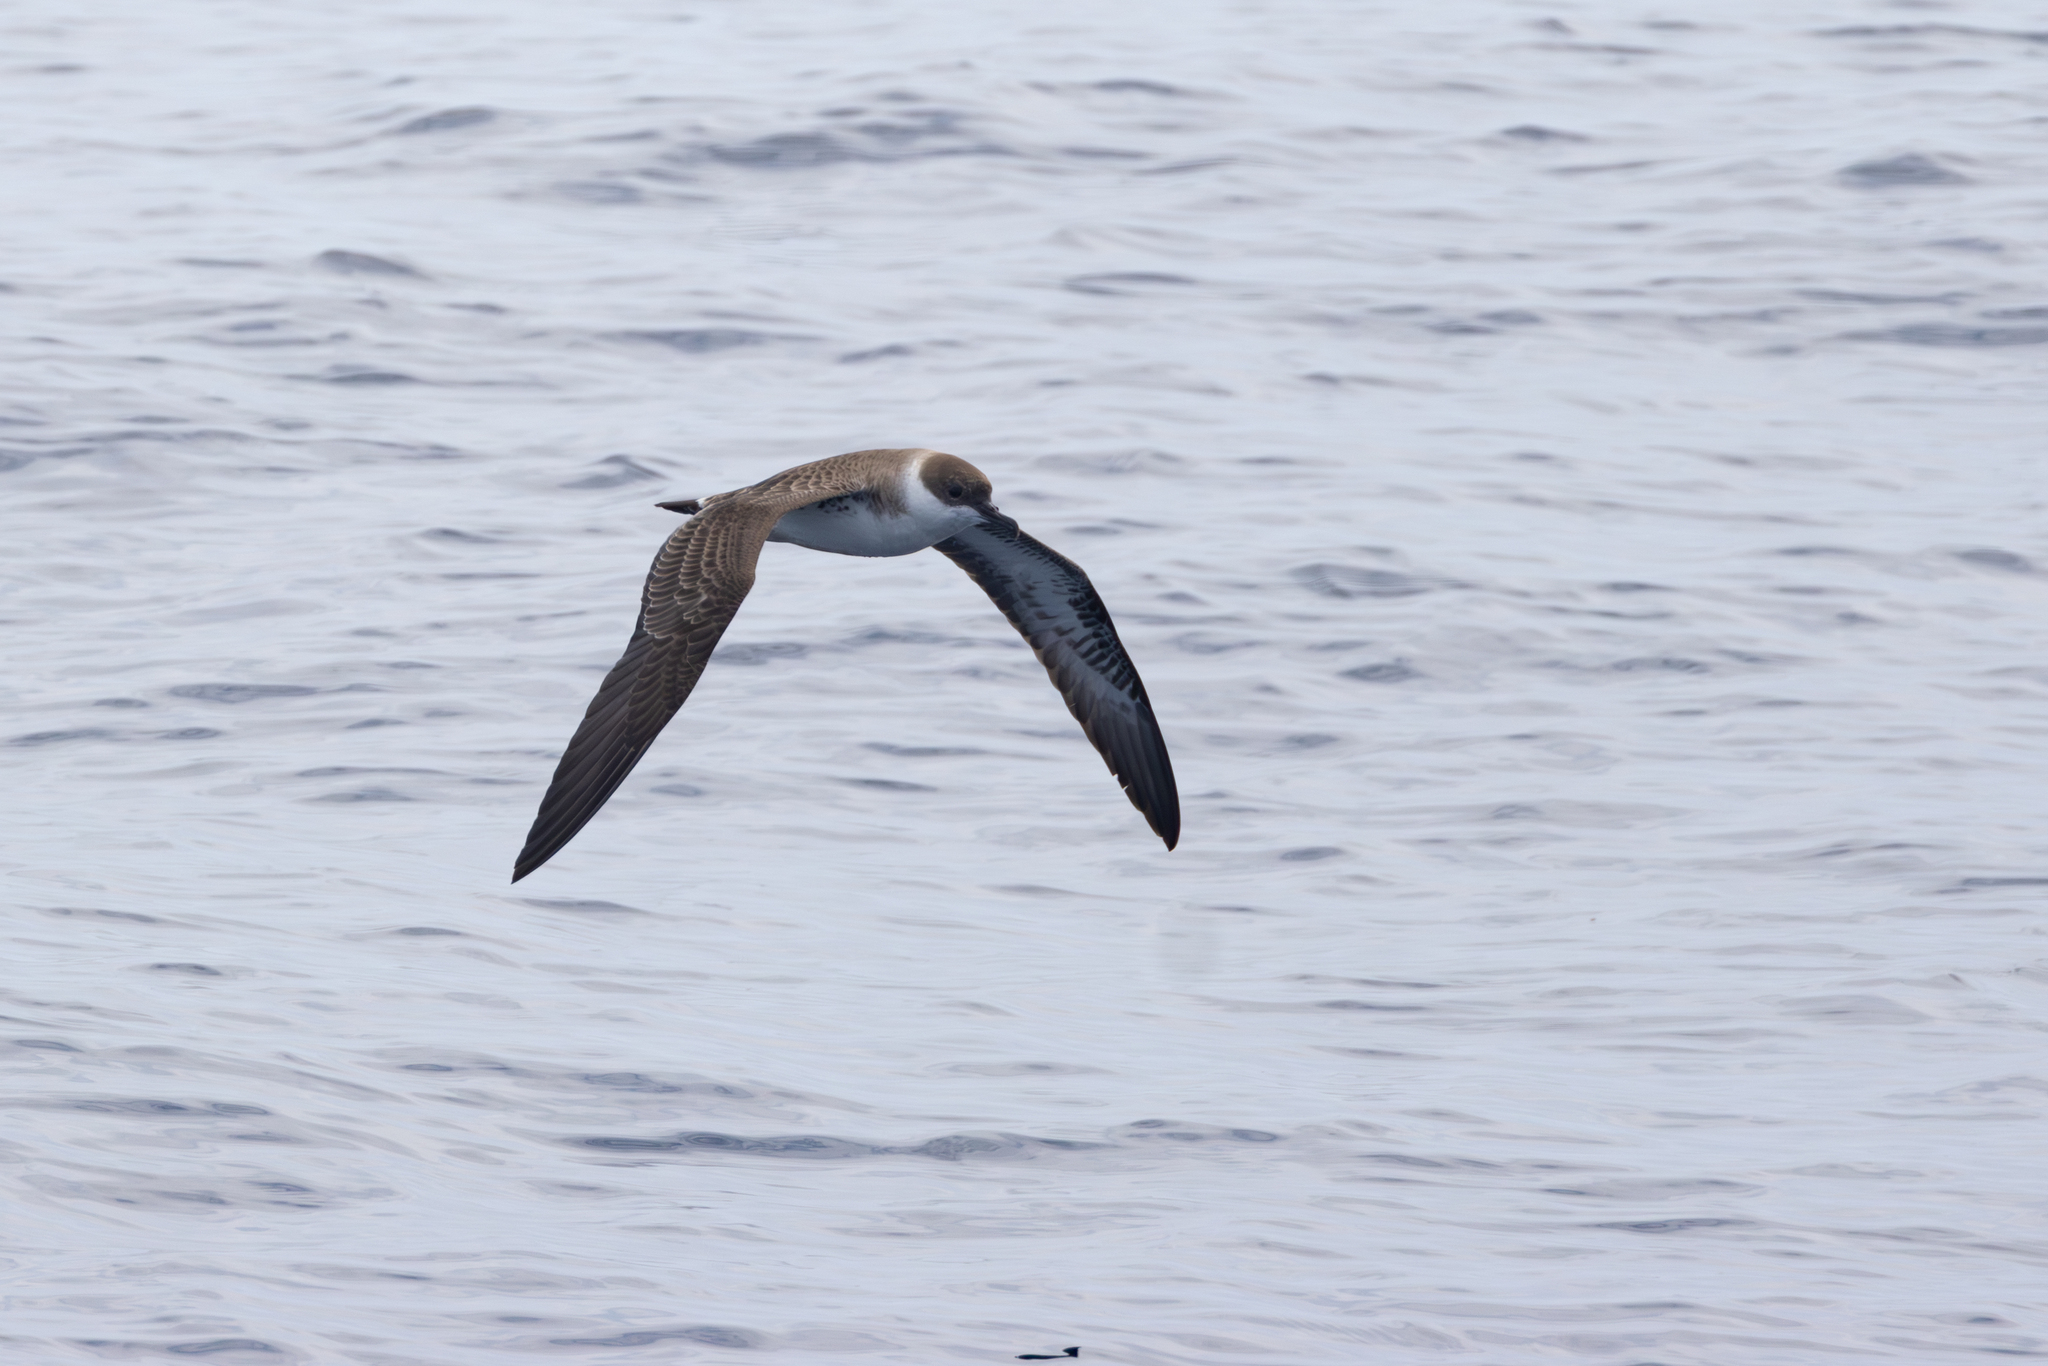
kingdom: Animalia
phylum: Chordata
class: Aves
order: Procellariiformes
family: Procellariidae
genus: Puffinus
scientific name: Puffinus gravis
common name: Great shearwater
